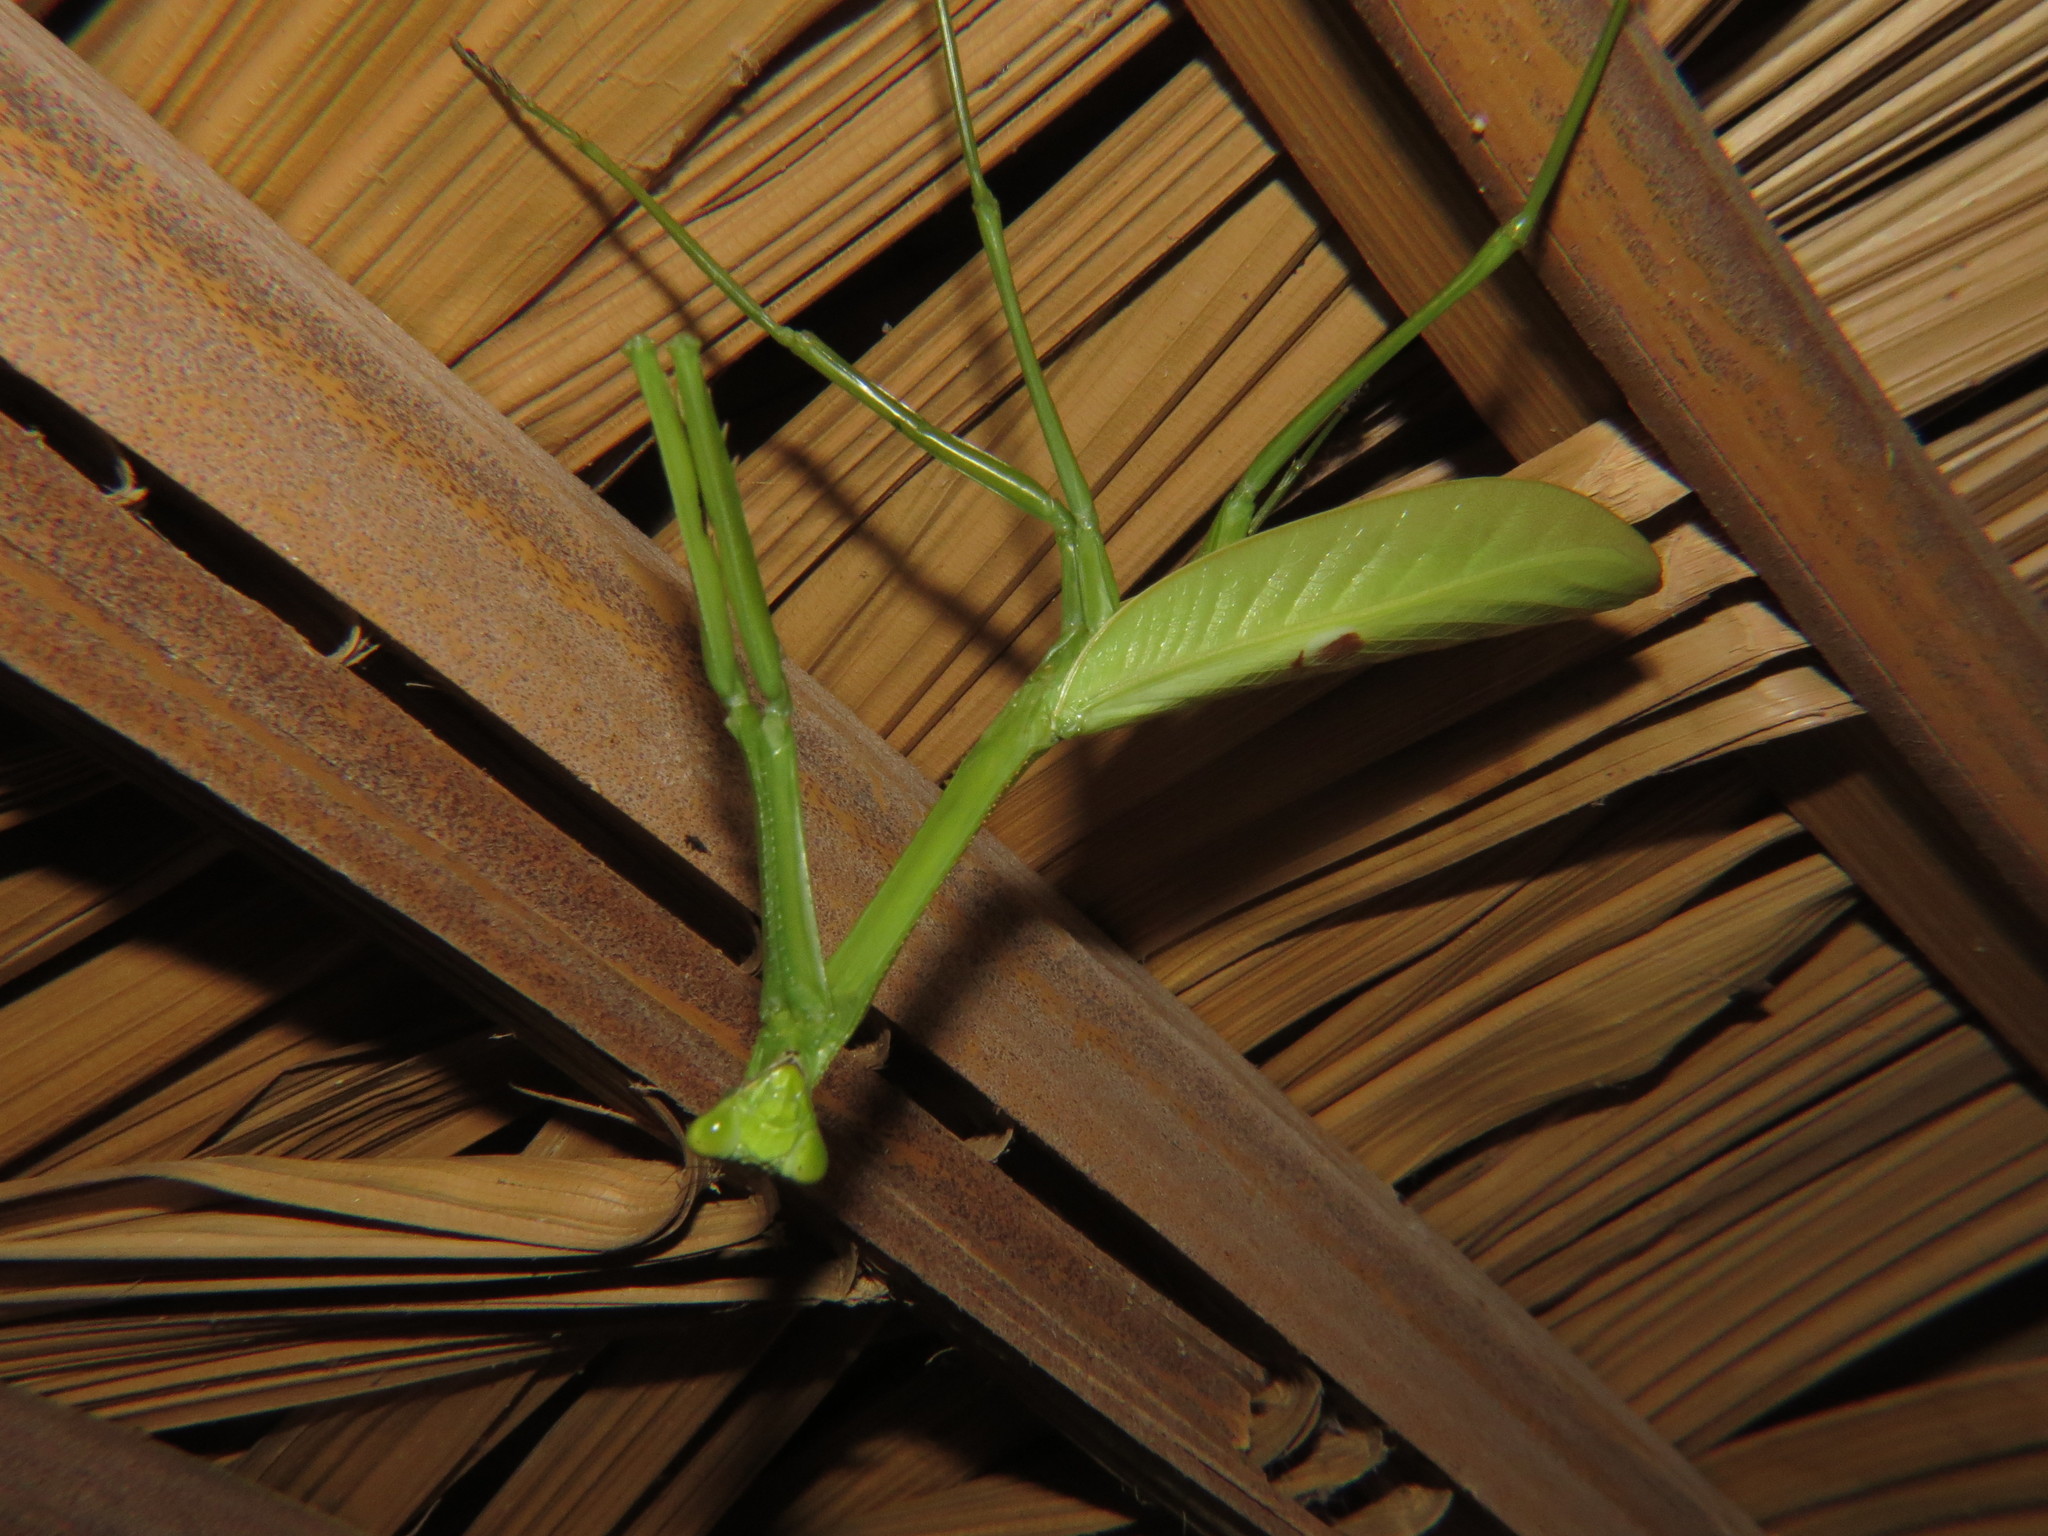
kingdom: Animalia
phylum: Arthropoda
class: Insecta
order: Mantodea
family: Mantidae
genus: Stagmatoptera
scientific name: Stagmatoptera binotata
